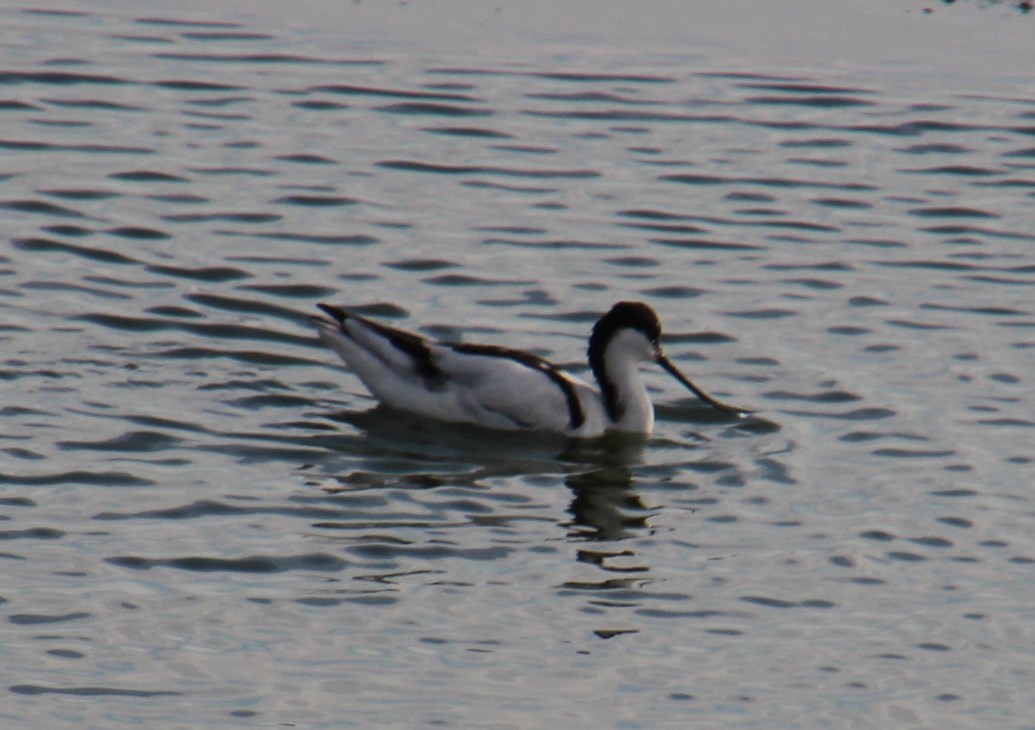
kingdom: Animalia
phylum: Chordata
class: Aves
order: Charadriiformes
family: Recurvirostridae
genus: Recurvirostra
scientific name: Recurvirostra avosetta
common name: Pied avocet
